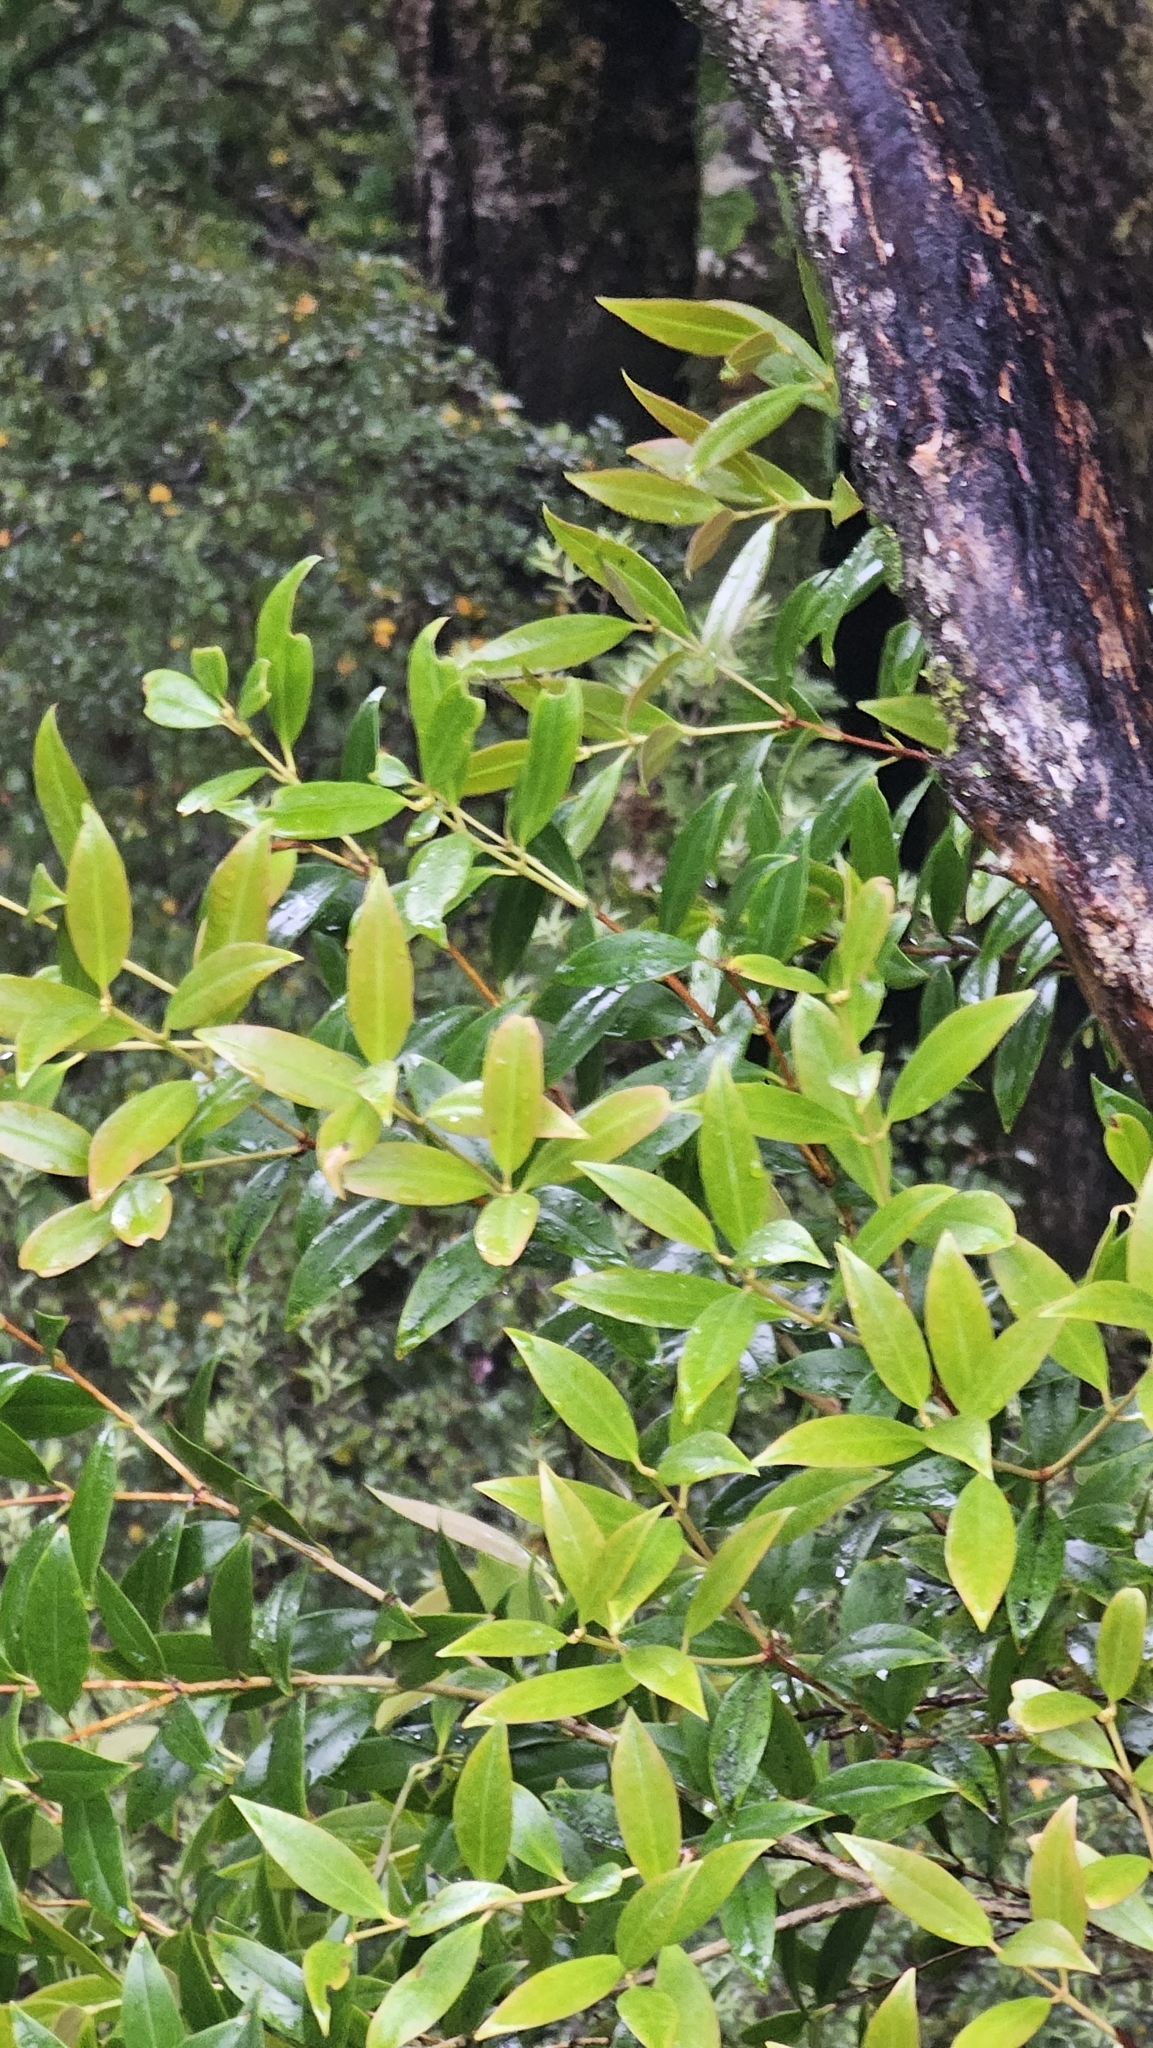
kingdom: Plantae
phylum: Tracheophyta
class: Magnoliopsida
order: Myrtales
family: Myrtaceae
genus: Metrosideros
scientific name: Metrosideros umbellata
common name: Southern rata
